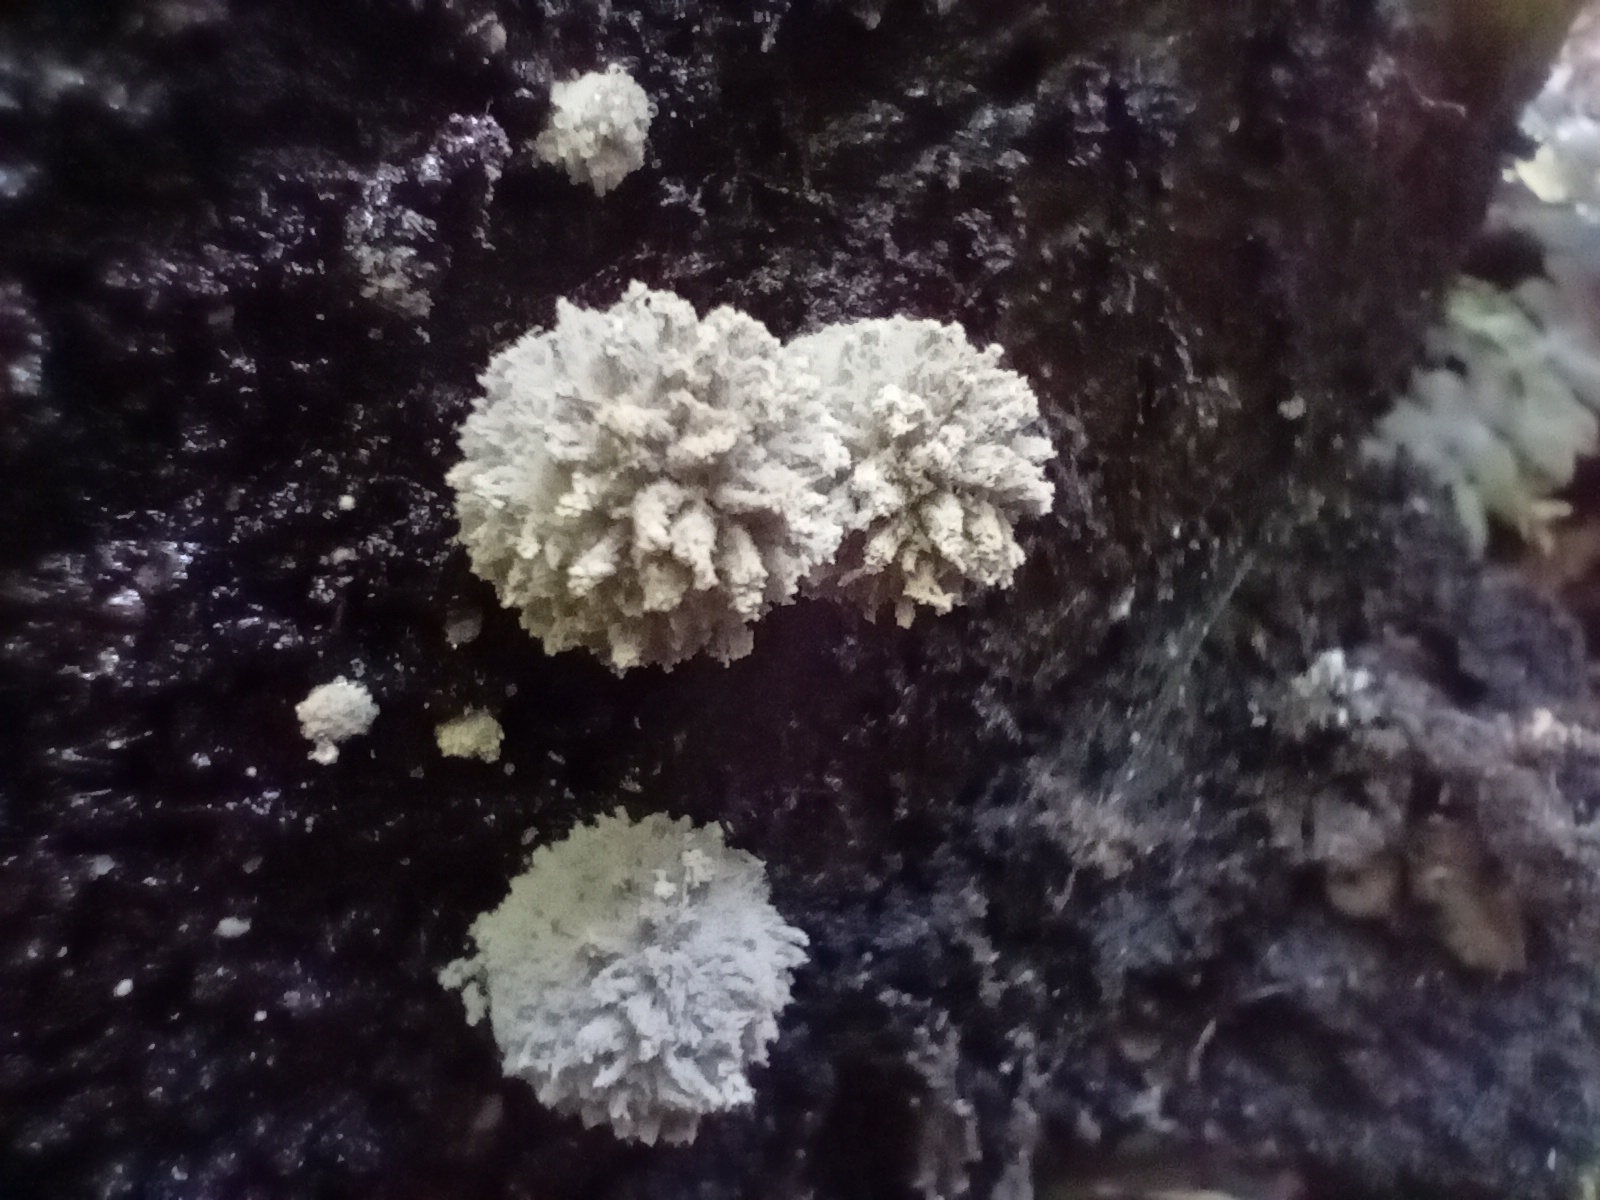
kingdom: Fungi
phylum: Basidiomycota
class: Agaricomycetes
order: Agaricales
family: Psathyrellaceae
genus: Coprinopsis
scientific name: Coprinopsis laanii
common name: Dotty inkcap
